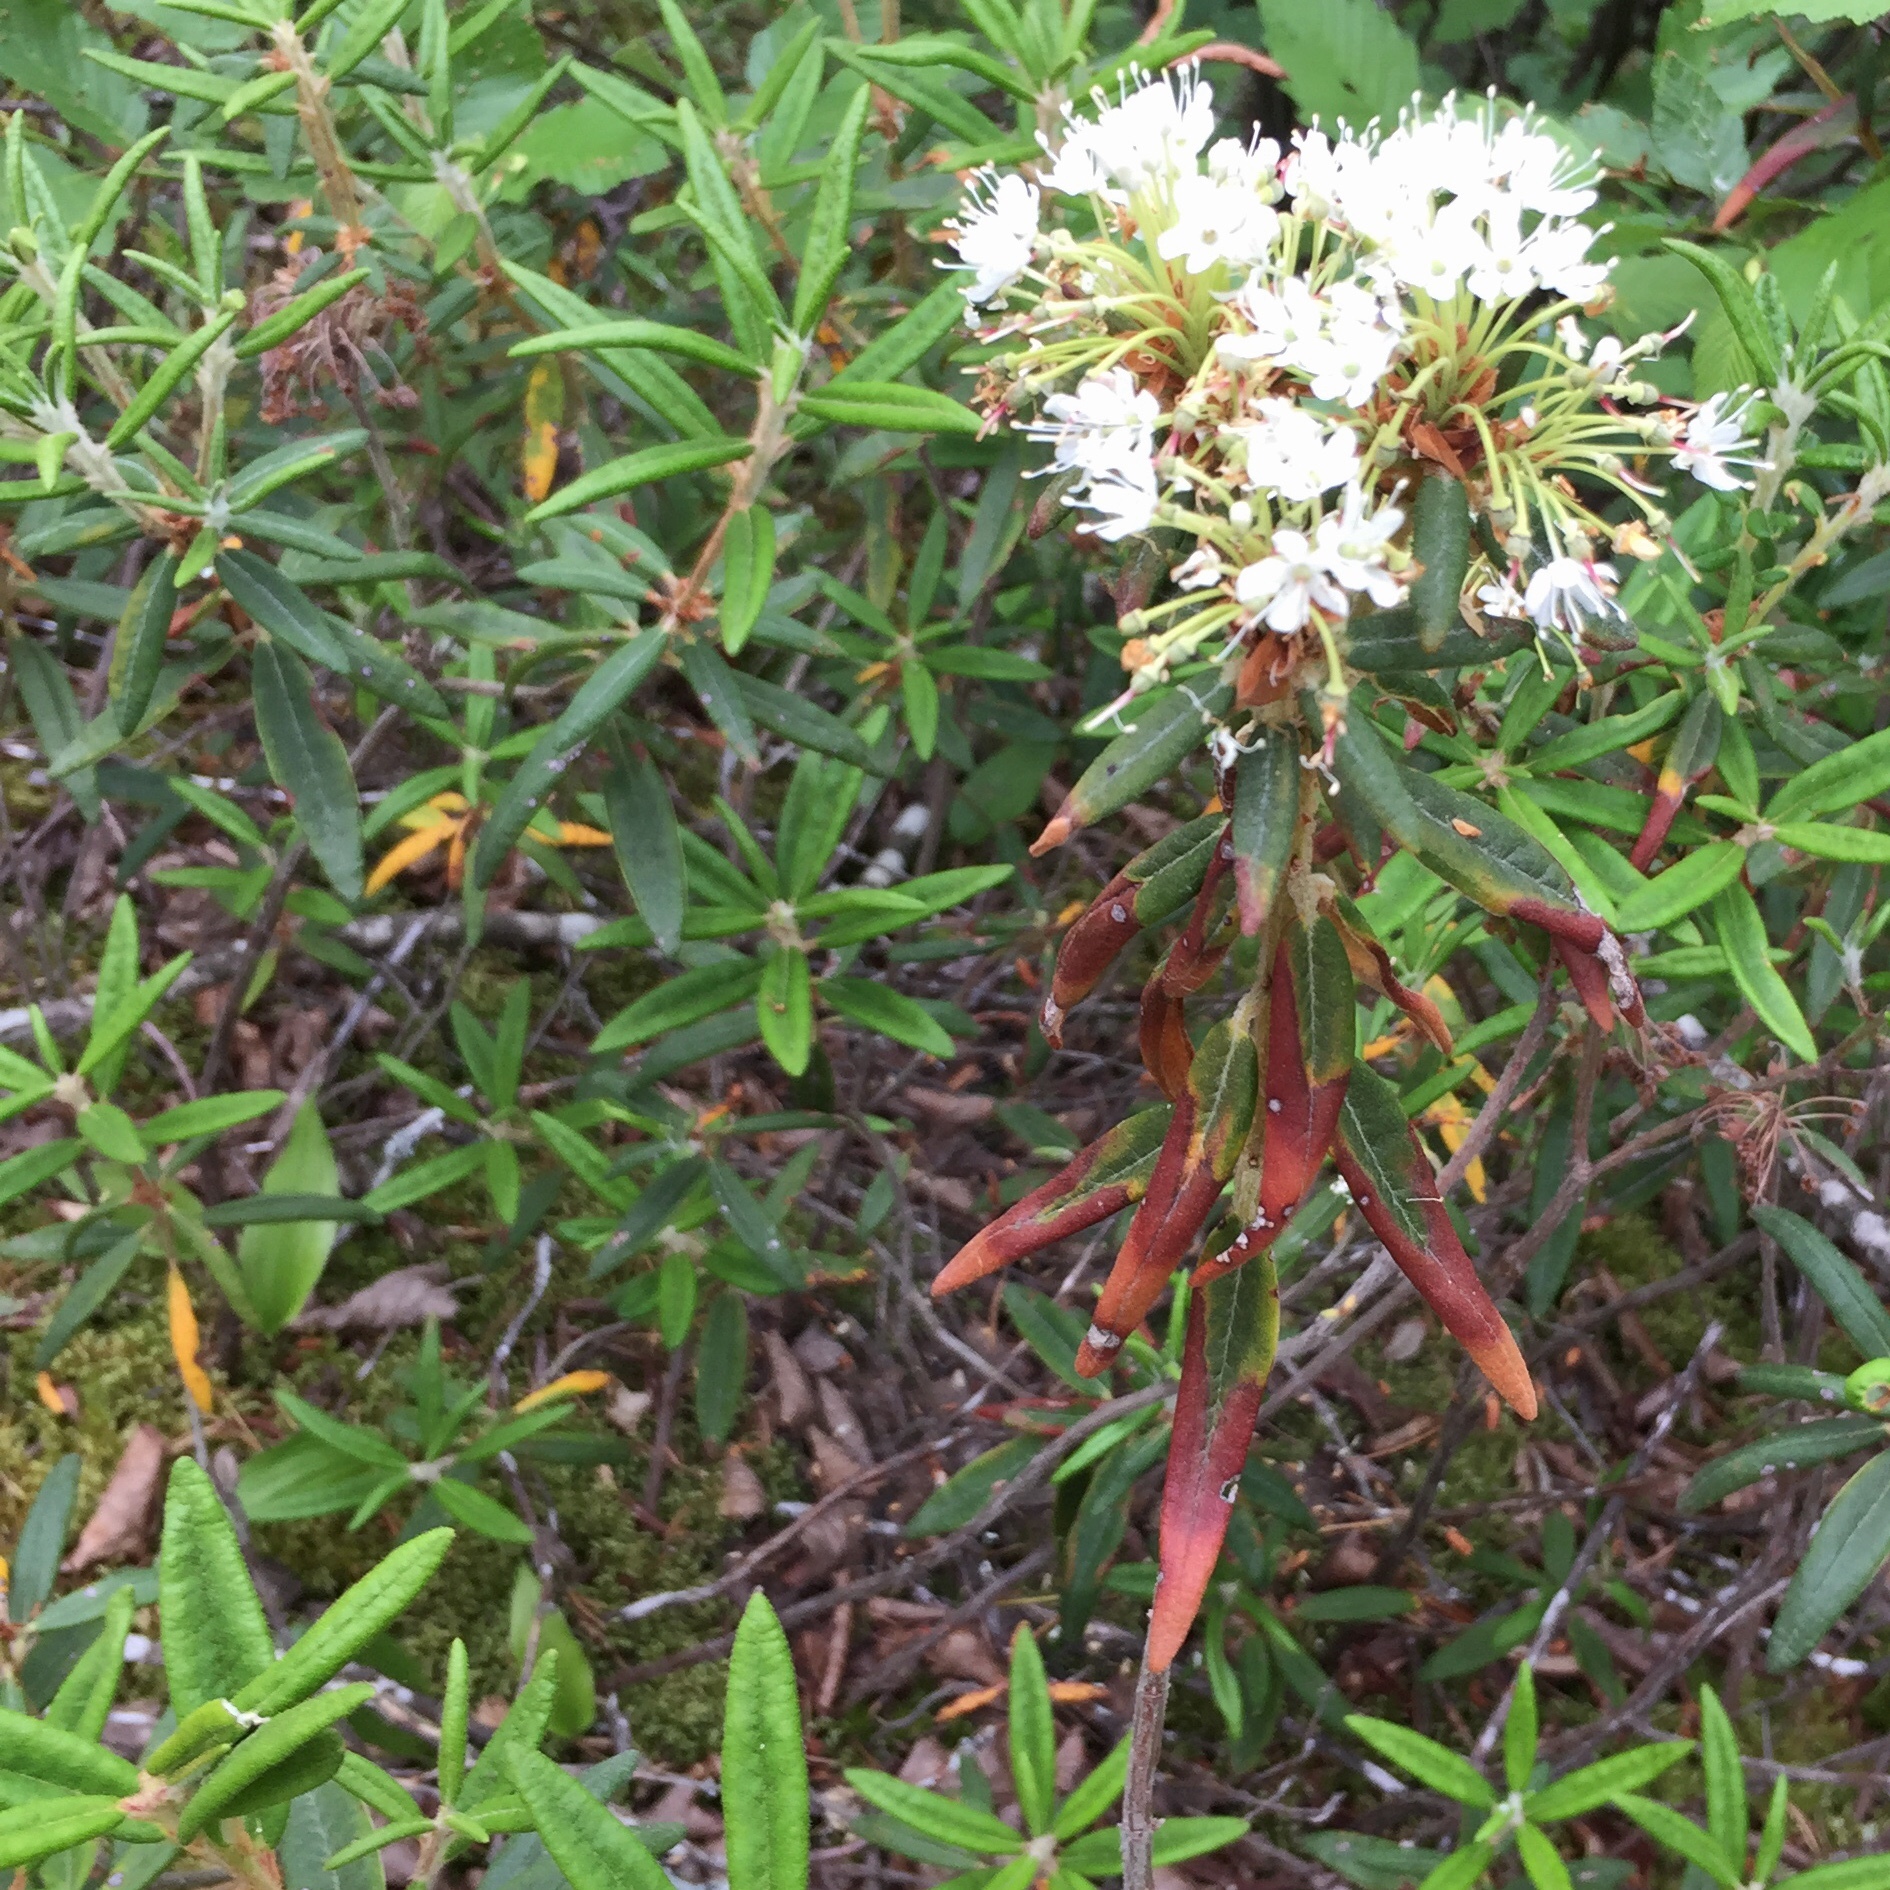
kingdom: Plantae
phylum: Tracheophyta
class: Magnoliopsida
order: Ericales
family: Ericaceae
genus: Rhododendron
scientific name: Rhododendron groenlandicum
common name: Bog labrador tea
